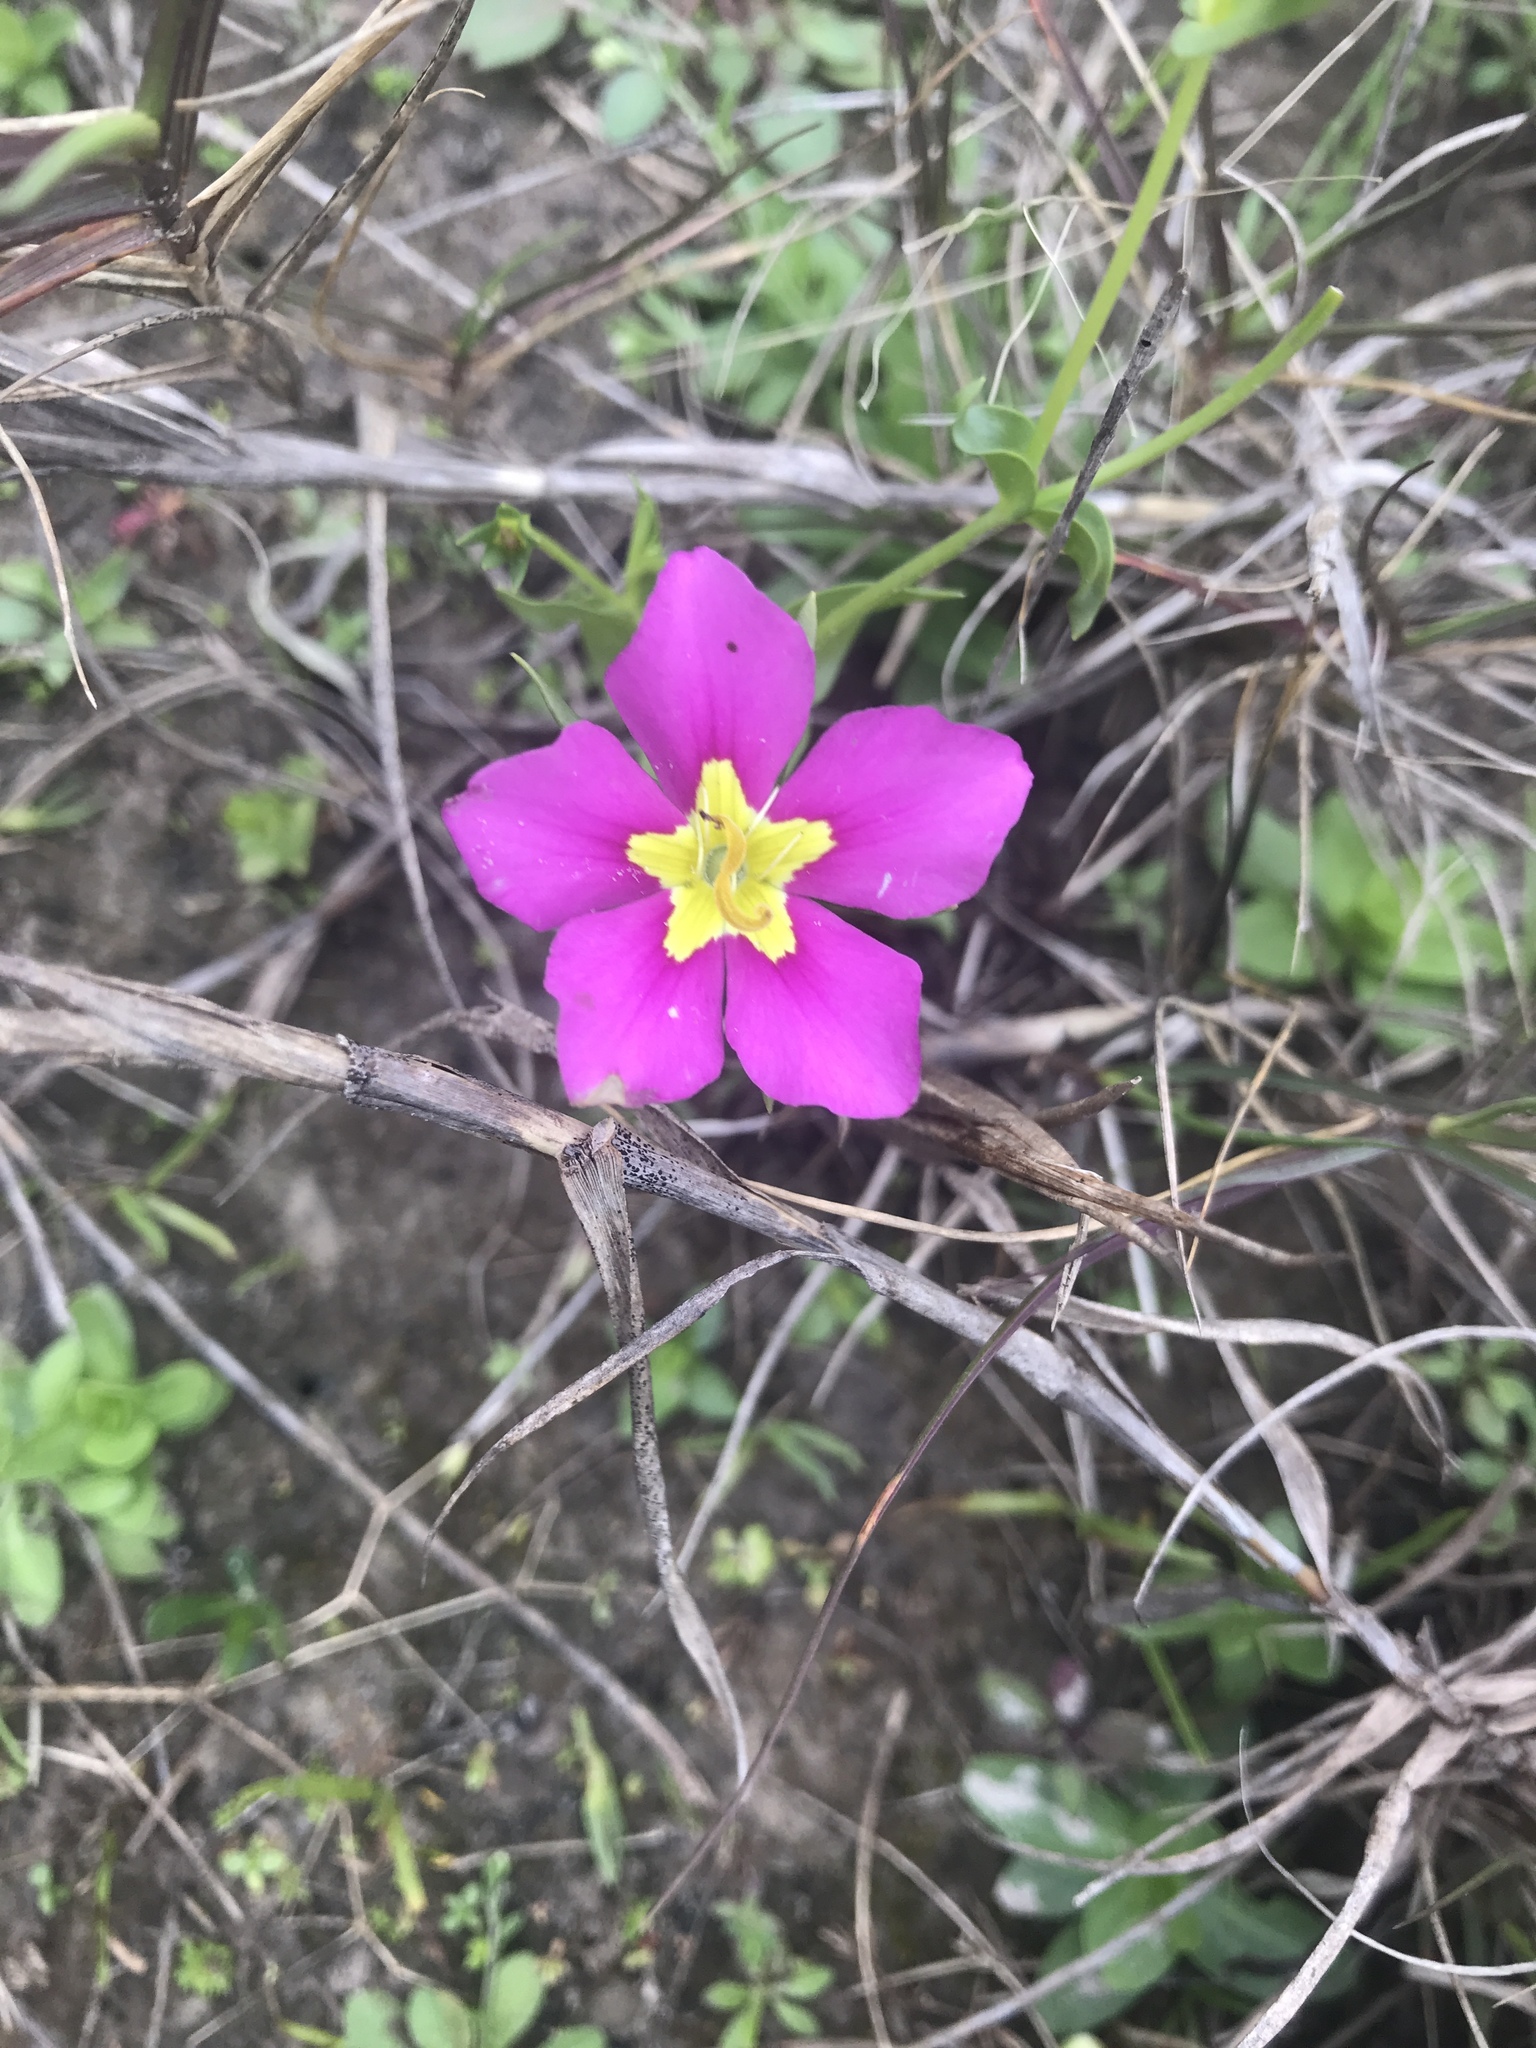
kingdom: Plantae
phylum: Tracheophyta
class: Magnoliopsida
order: Gentianales
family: Gentianaceae
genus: Sabatia
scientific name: Sabatia campestris
